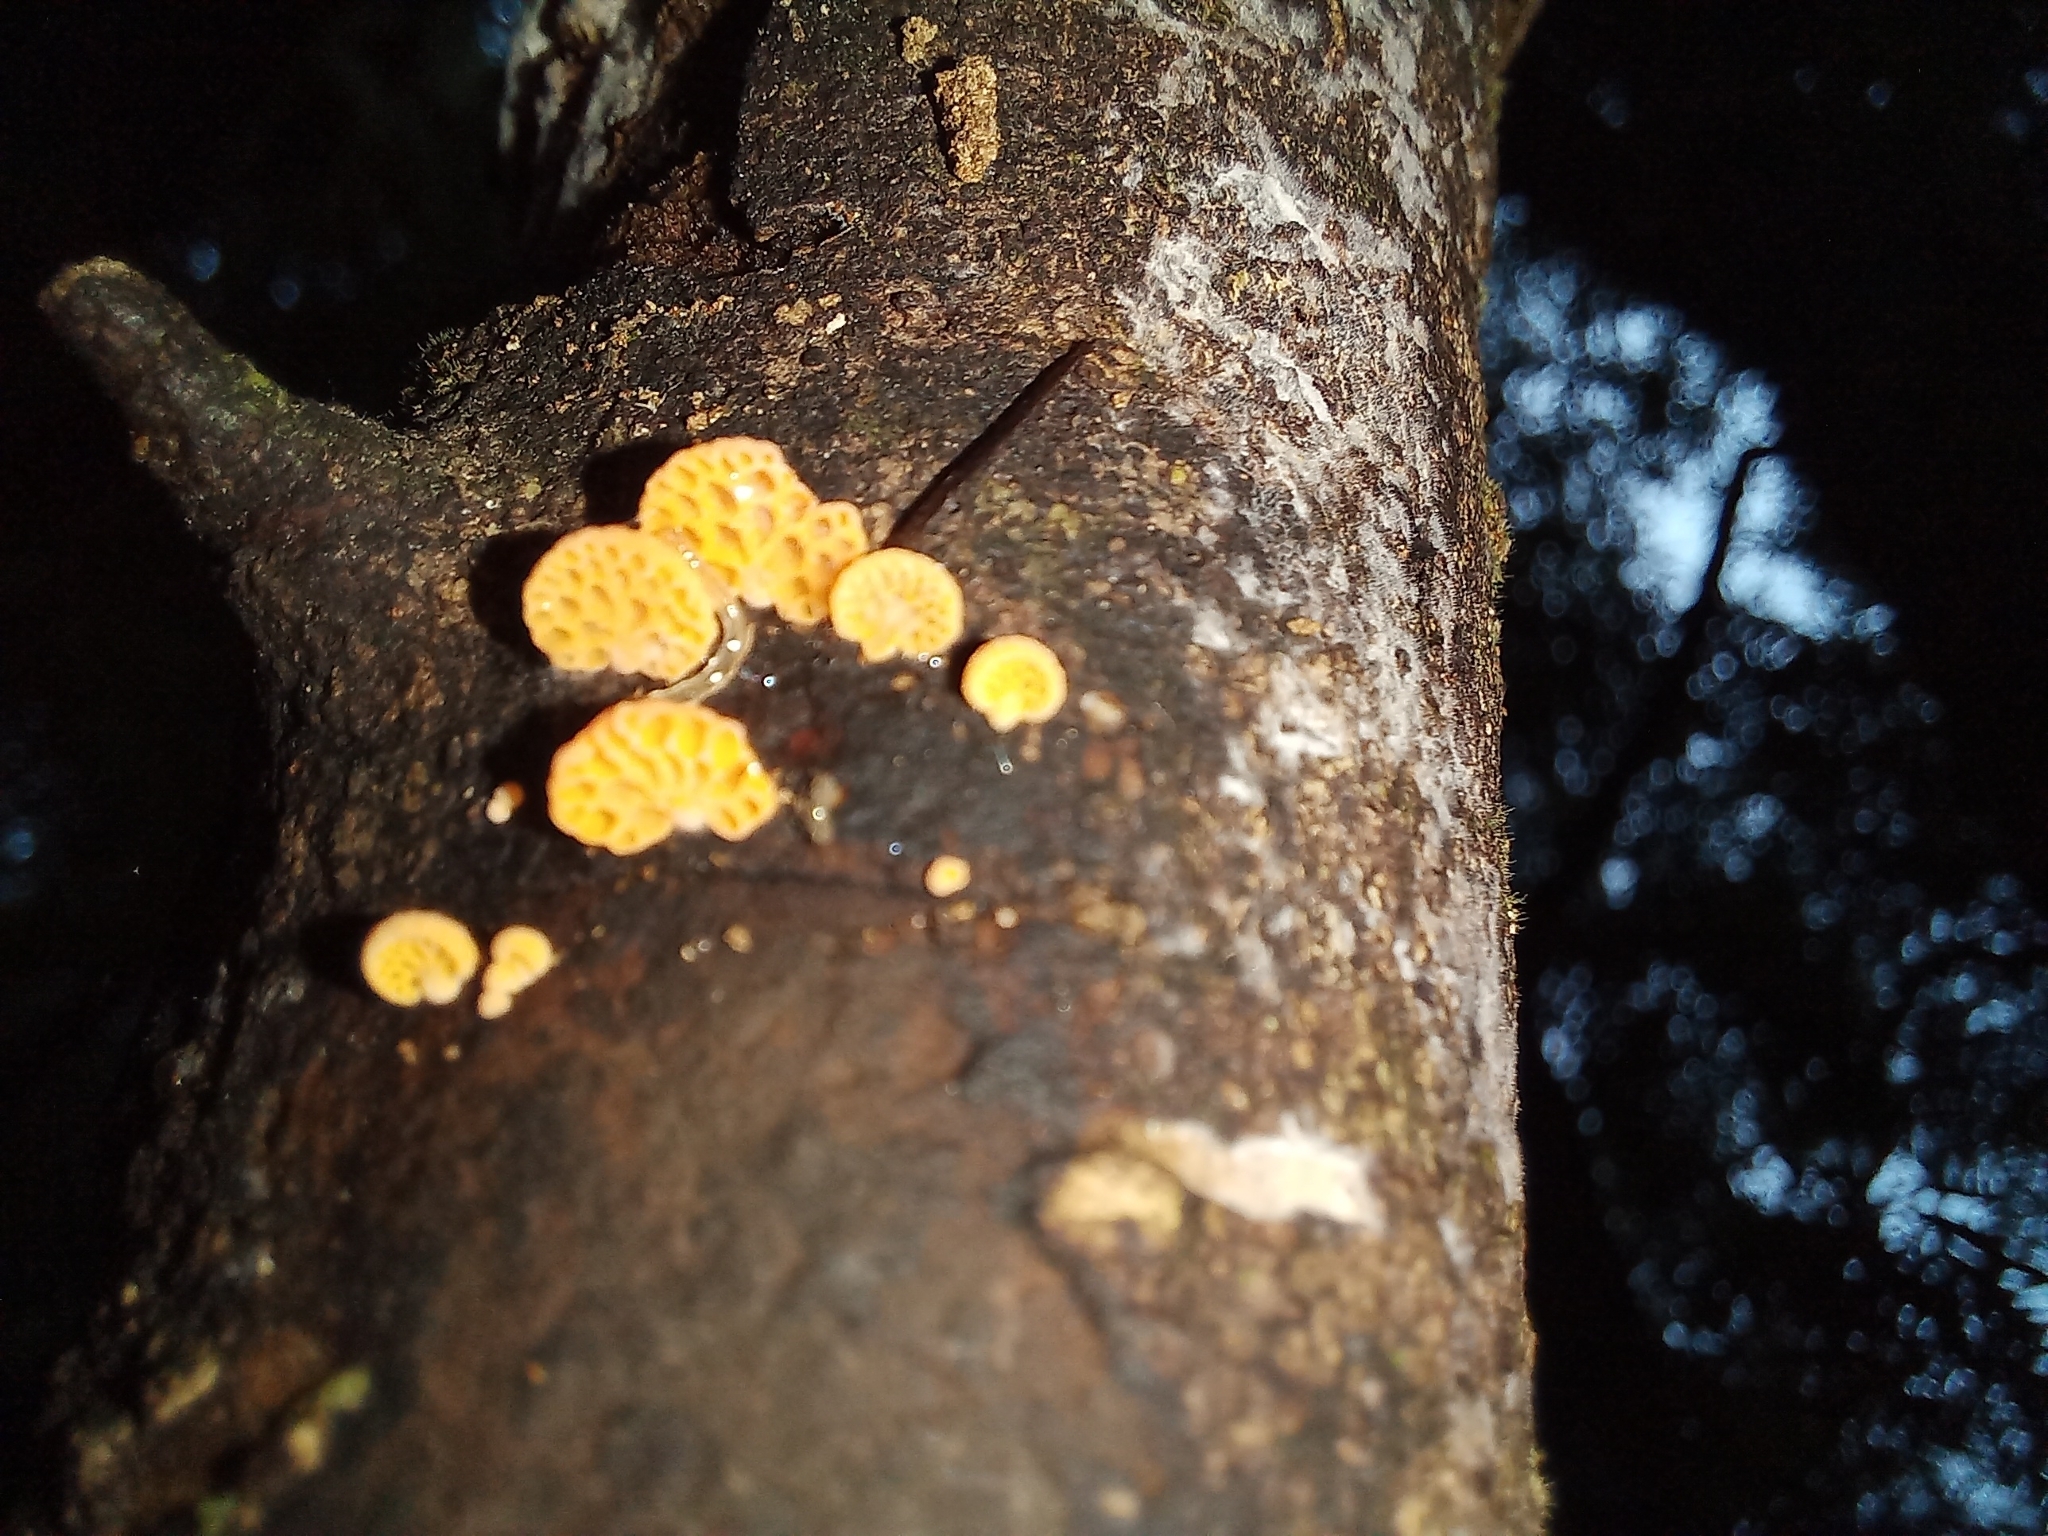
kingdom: Fungi
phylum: Basidiomycota
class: Agaricomycetes
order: Agaricales
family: Mycenaceae
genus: Favolaschia
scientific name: Favolaschia claudopus
